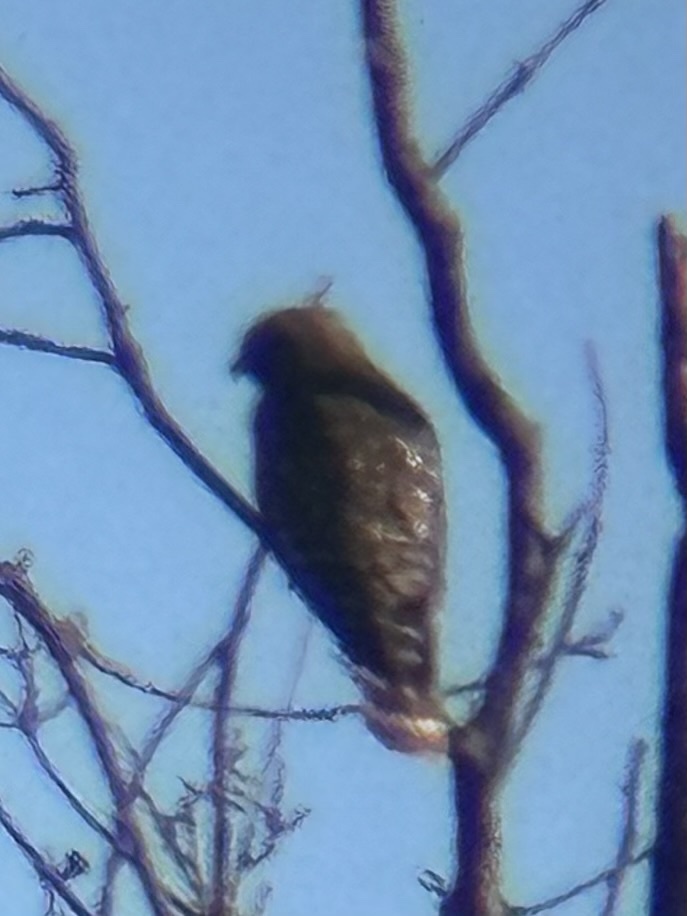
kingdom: Animalia
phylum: Chordata
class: Aves
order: Accipitriformes
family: Accipitridae
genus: Buteo
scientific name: Buteo lineatus
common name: Red-shouldered hawk
